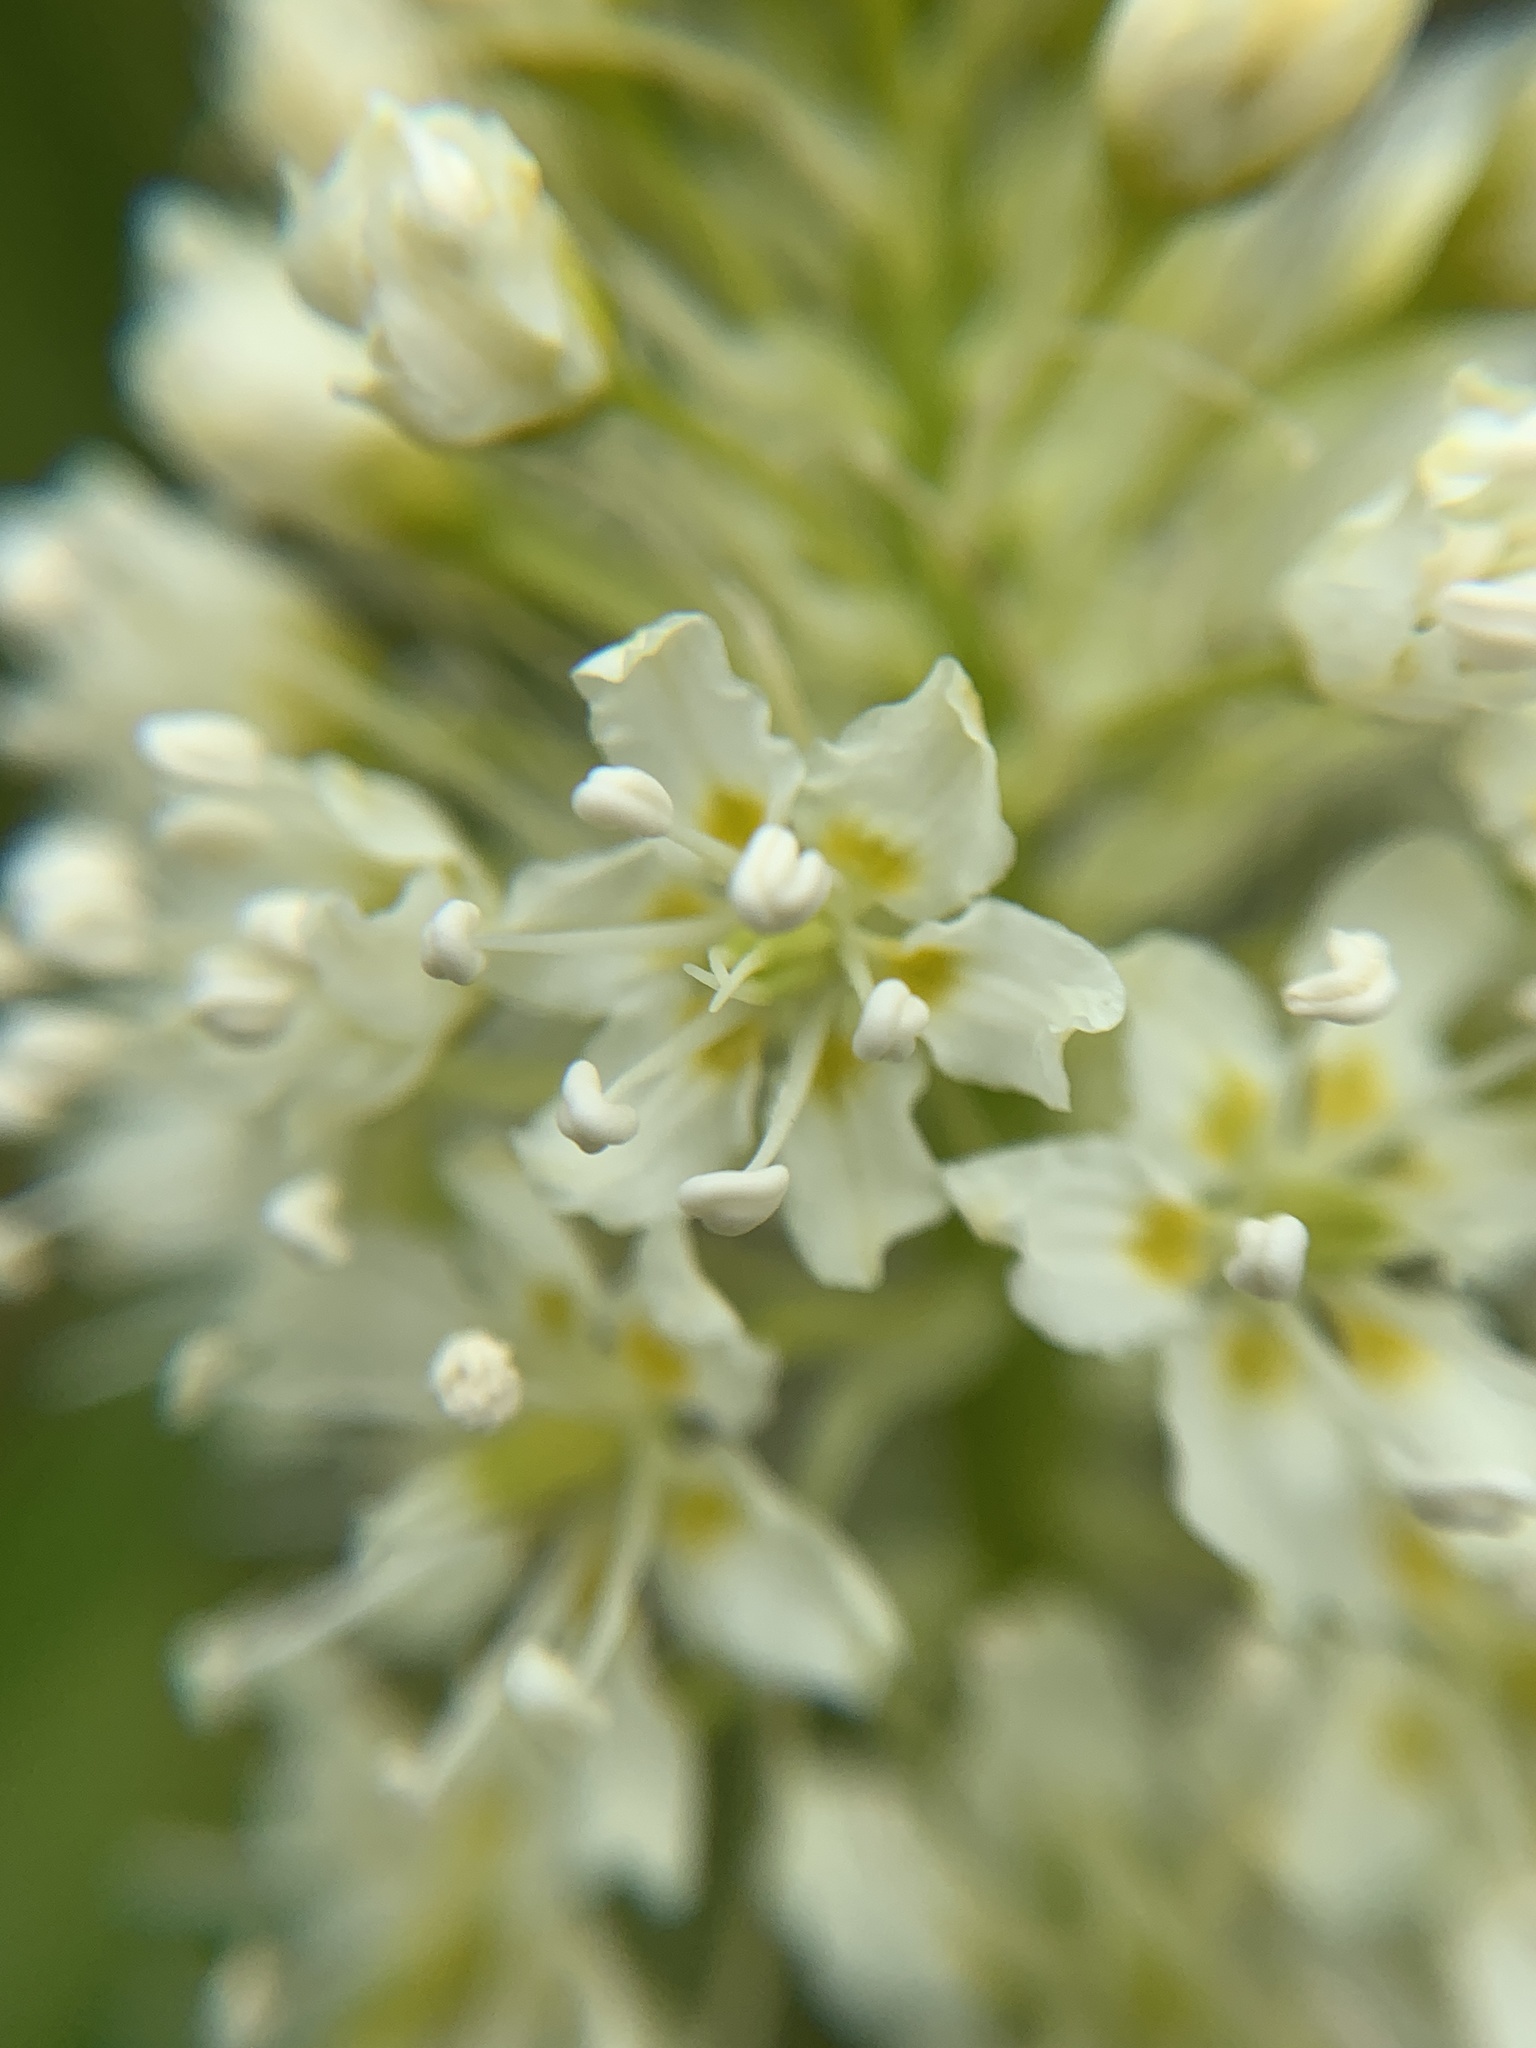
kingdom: Plantae
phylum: Tracheophyta
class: Liliopsida
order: Liliales
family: Melanthiaceae
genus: Toxicoscordion
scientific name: Toxicoscordion venenosum
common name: Meadow death camas
